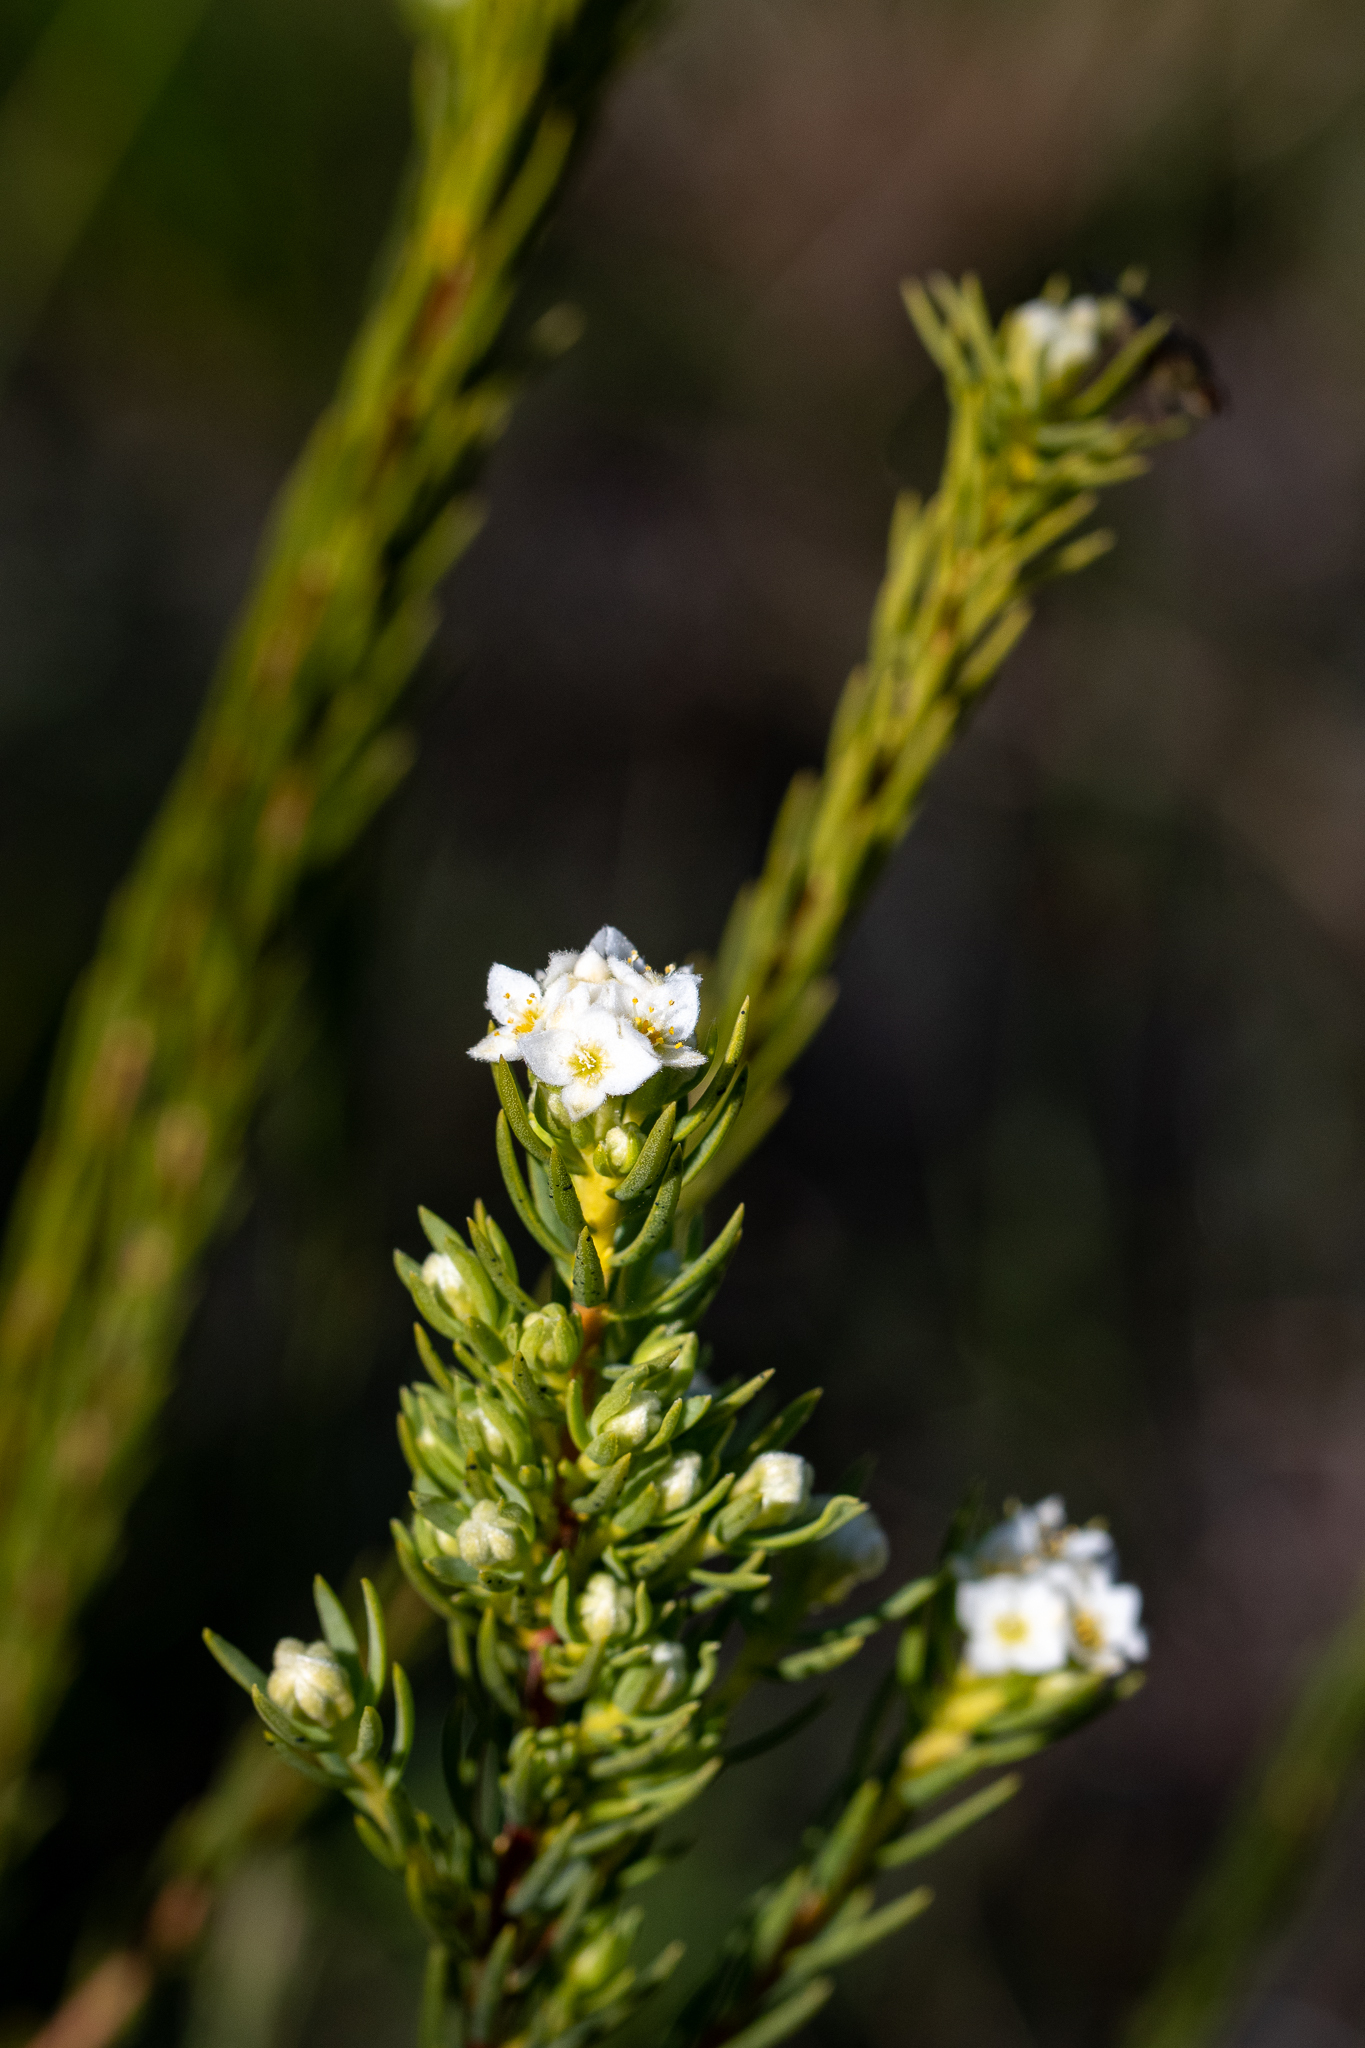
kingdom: Plantae
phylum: Tracheophyta
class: Magnoliopsida
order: Malvales
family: Thymelaeaceae
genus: Lachnaea
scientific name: Lachnaea densiflora
